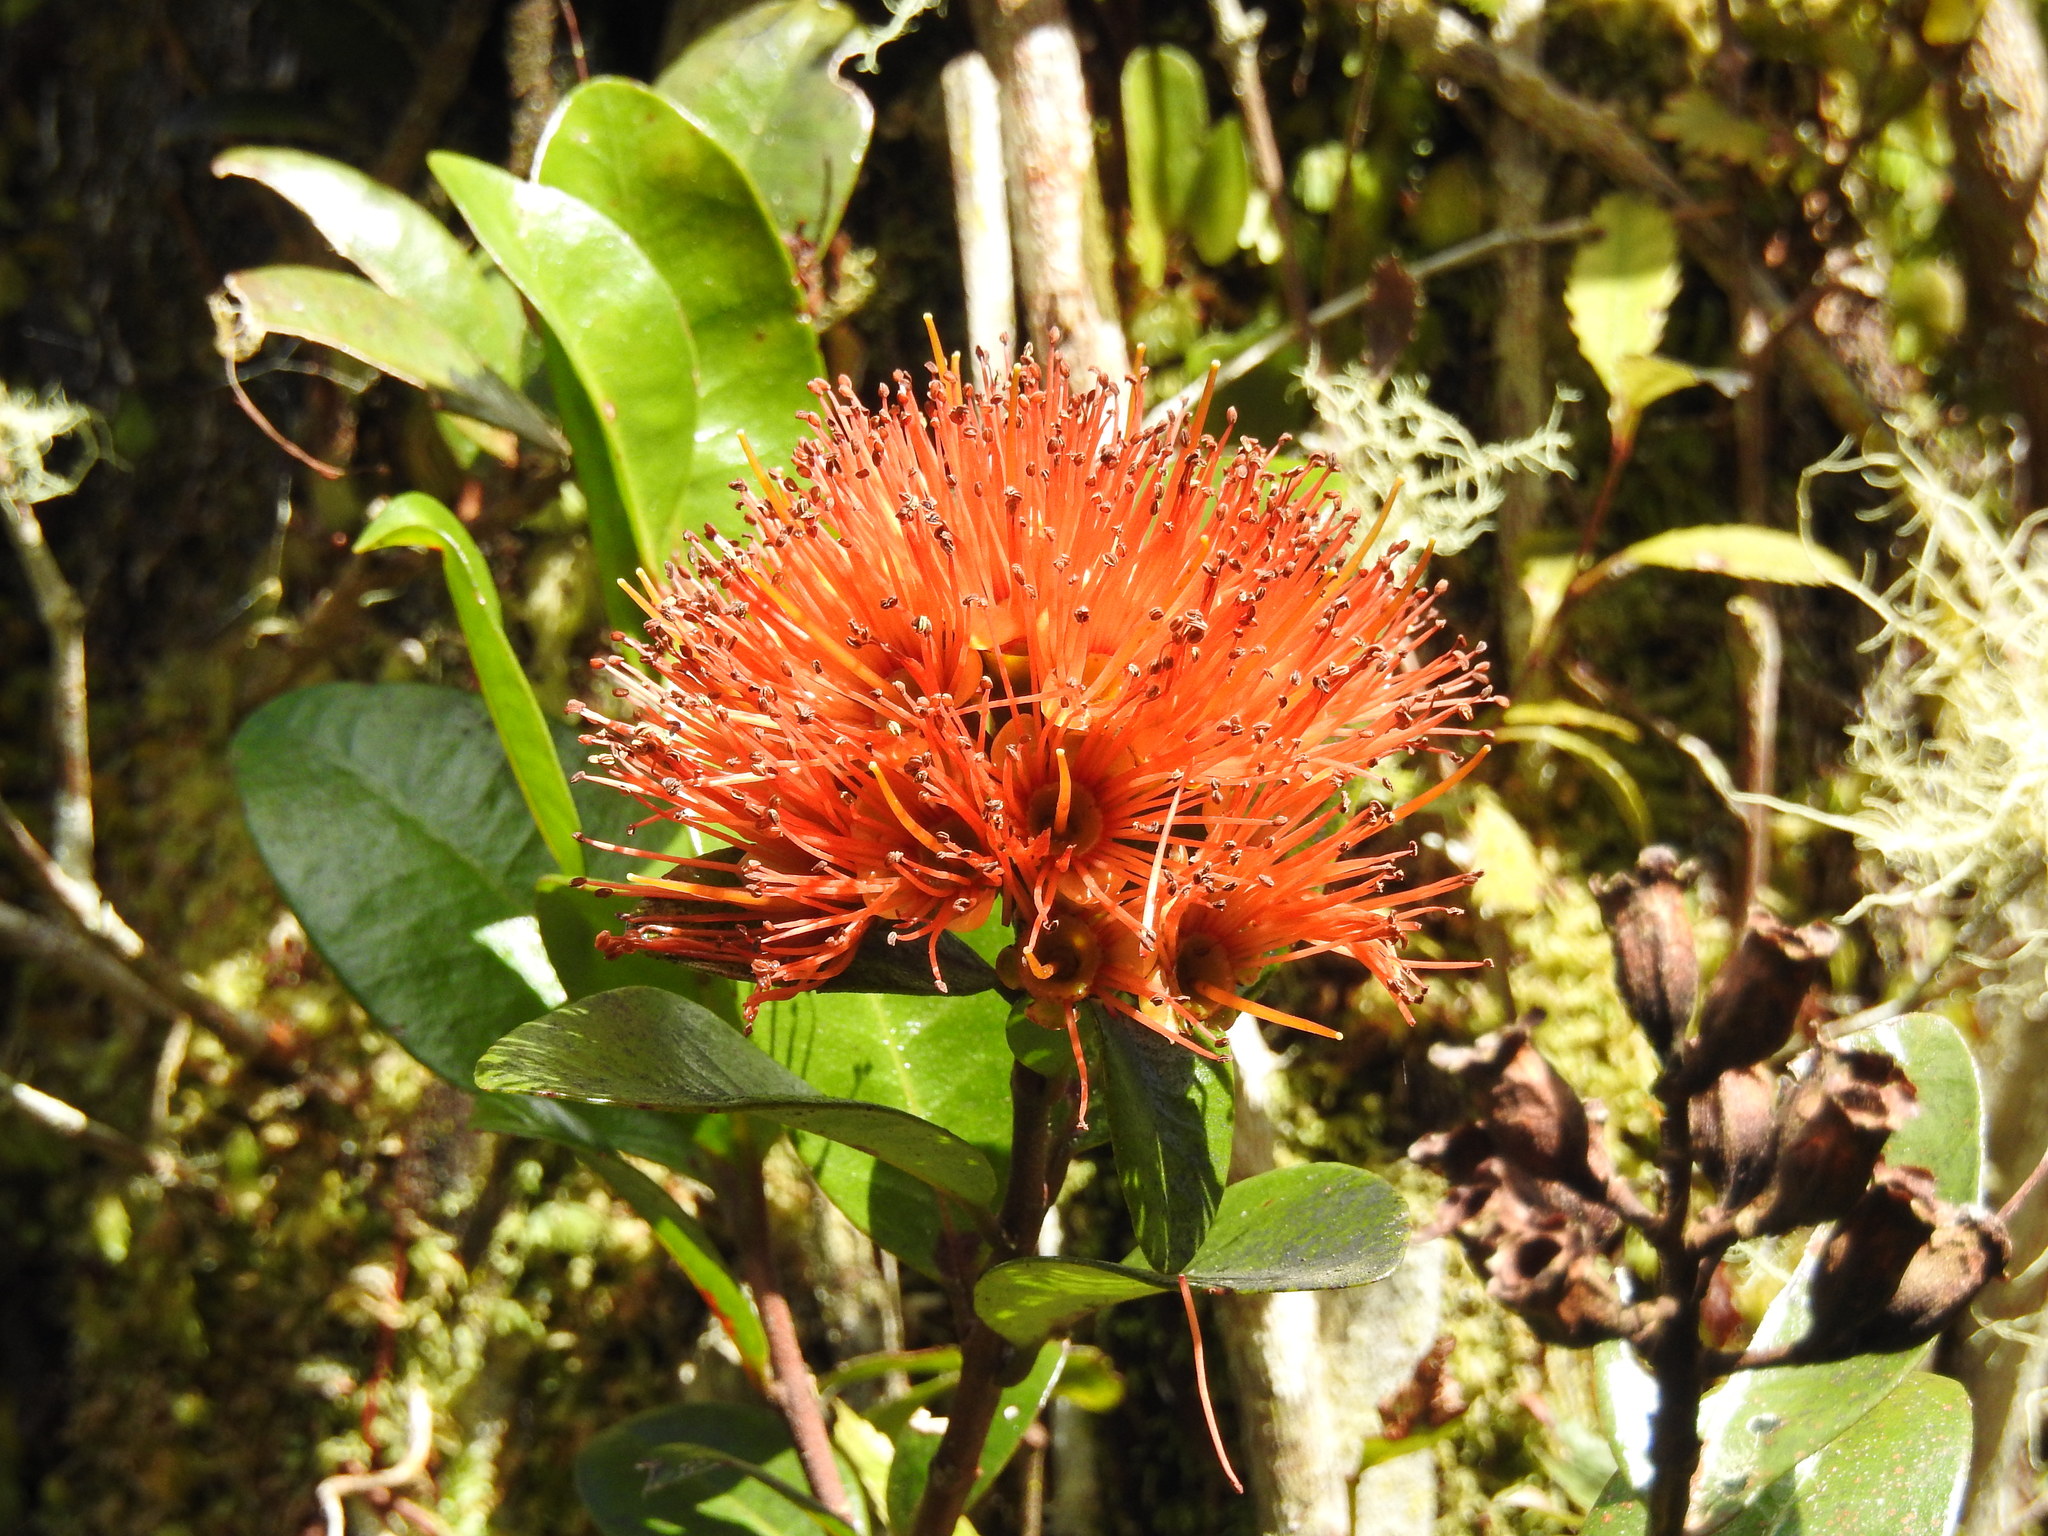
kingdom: Plantae
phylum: Tracheophyta
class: Magnoliopsida
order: Myrtales
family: Myrtaceae
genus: Metrosideros
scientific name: Metrosideros fulgens
